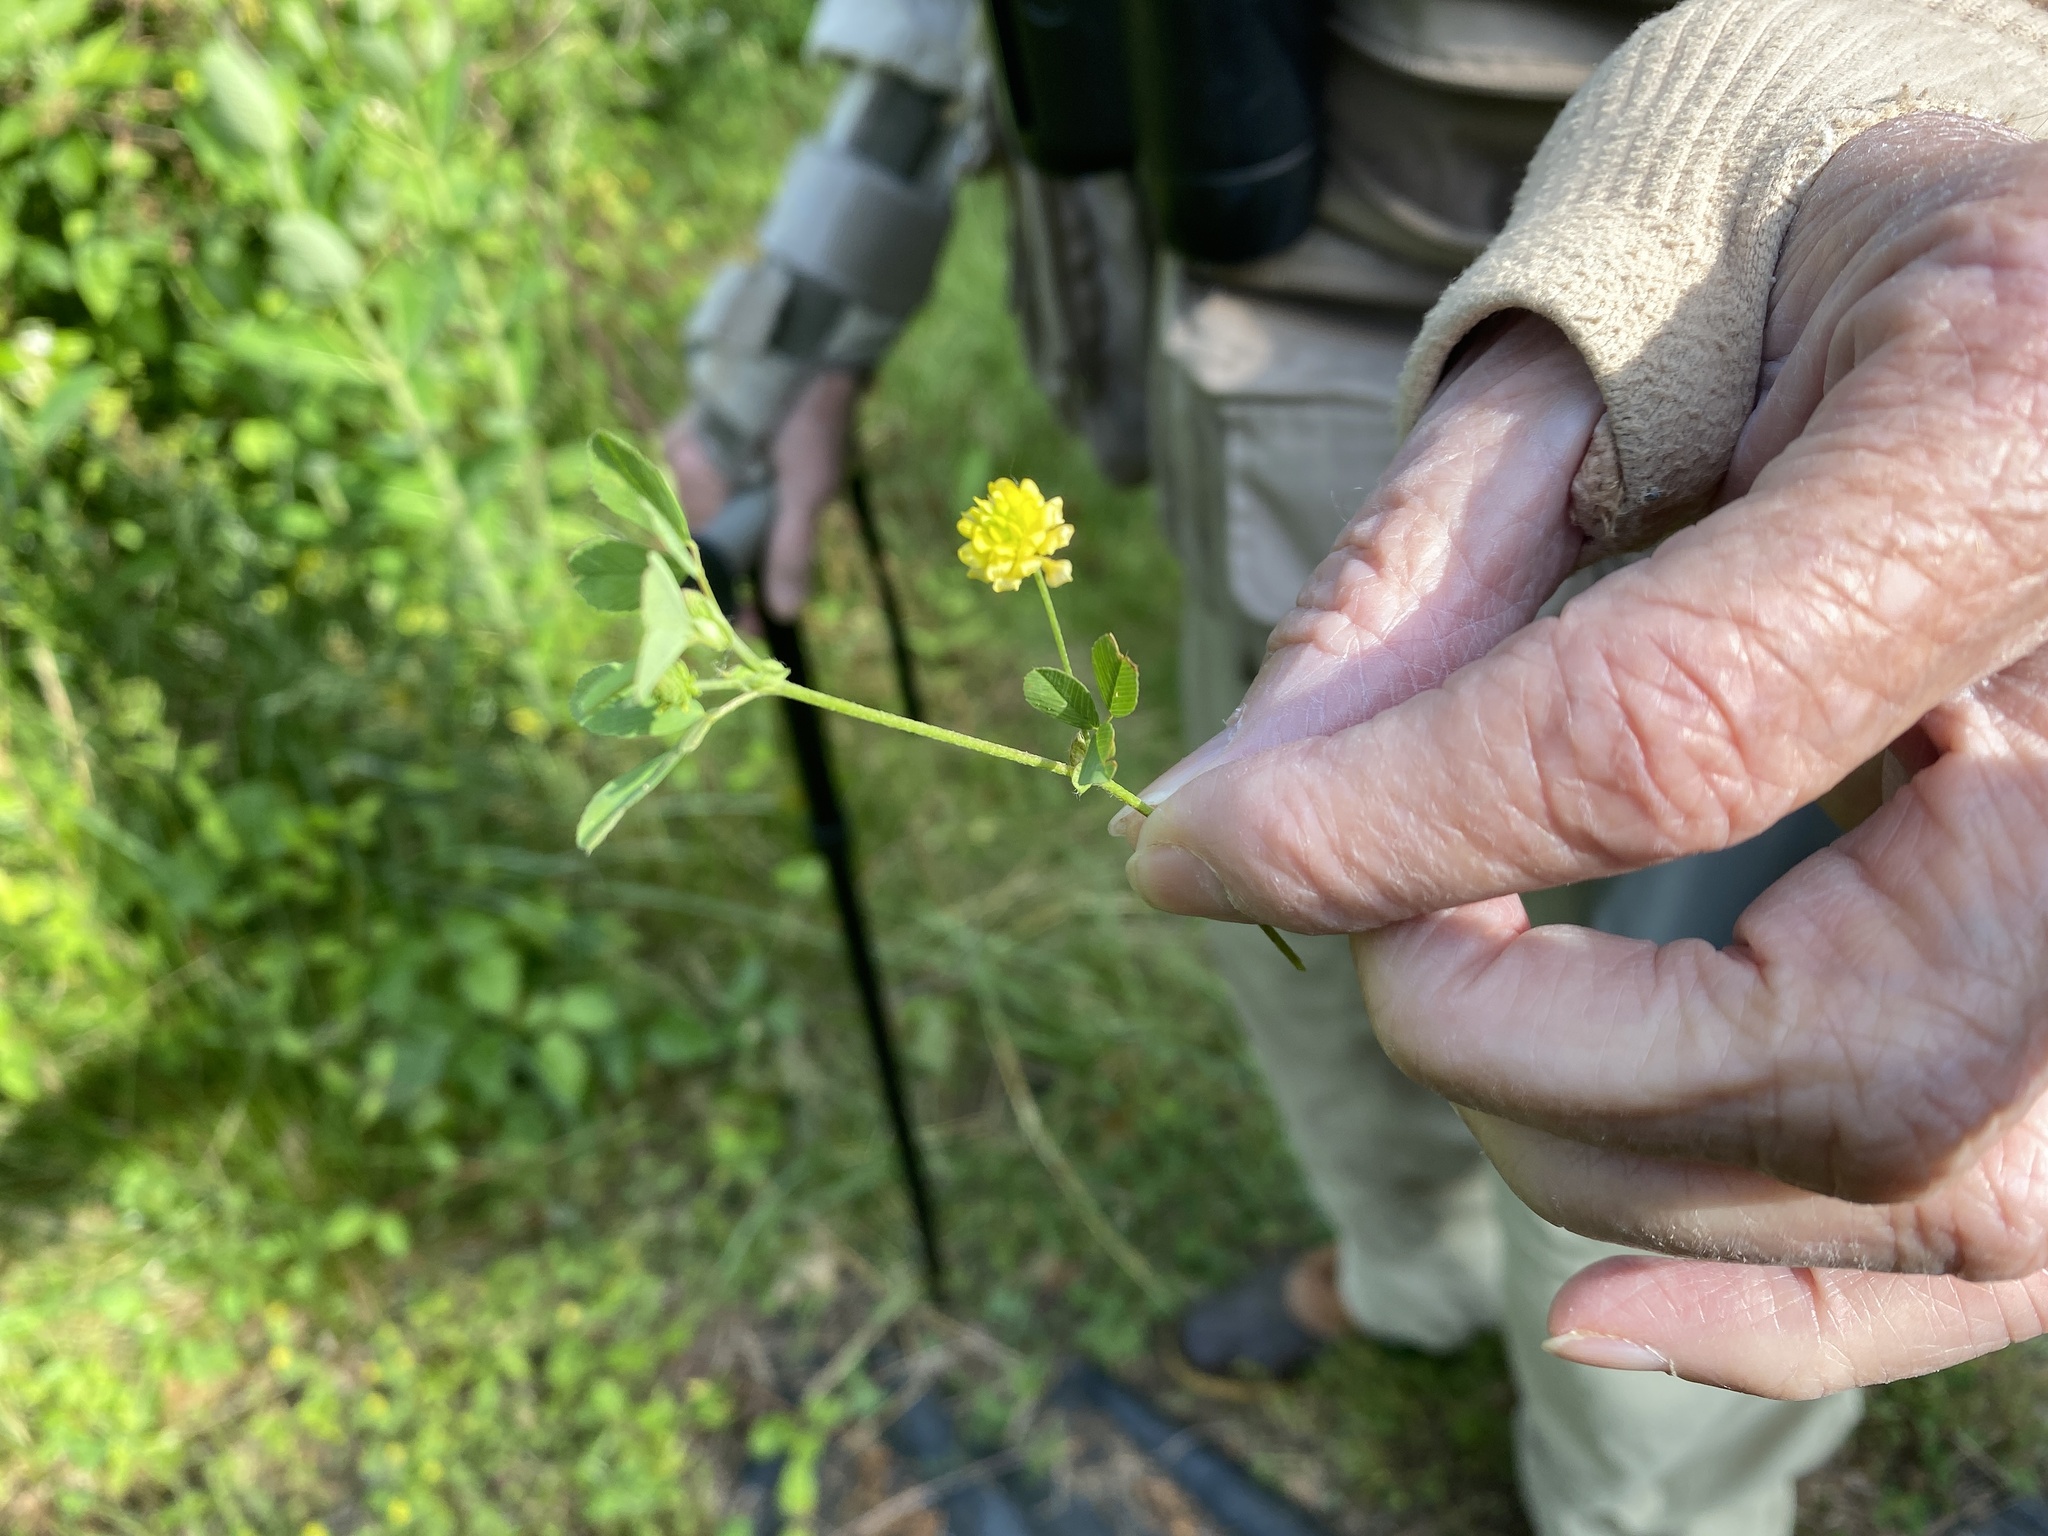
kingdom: Plantae
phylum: Tracheophyta
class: Magnoliopsida
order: Fabales
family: Fabaceae
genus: Trifolium
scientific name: Trifolium campestre
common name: Field clover
